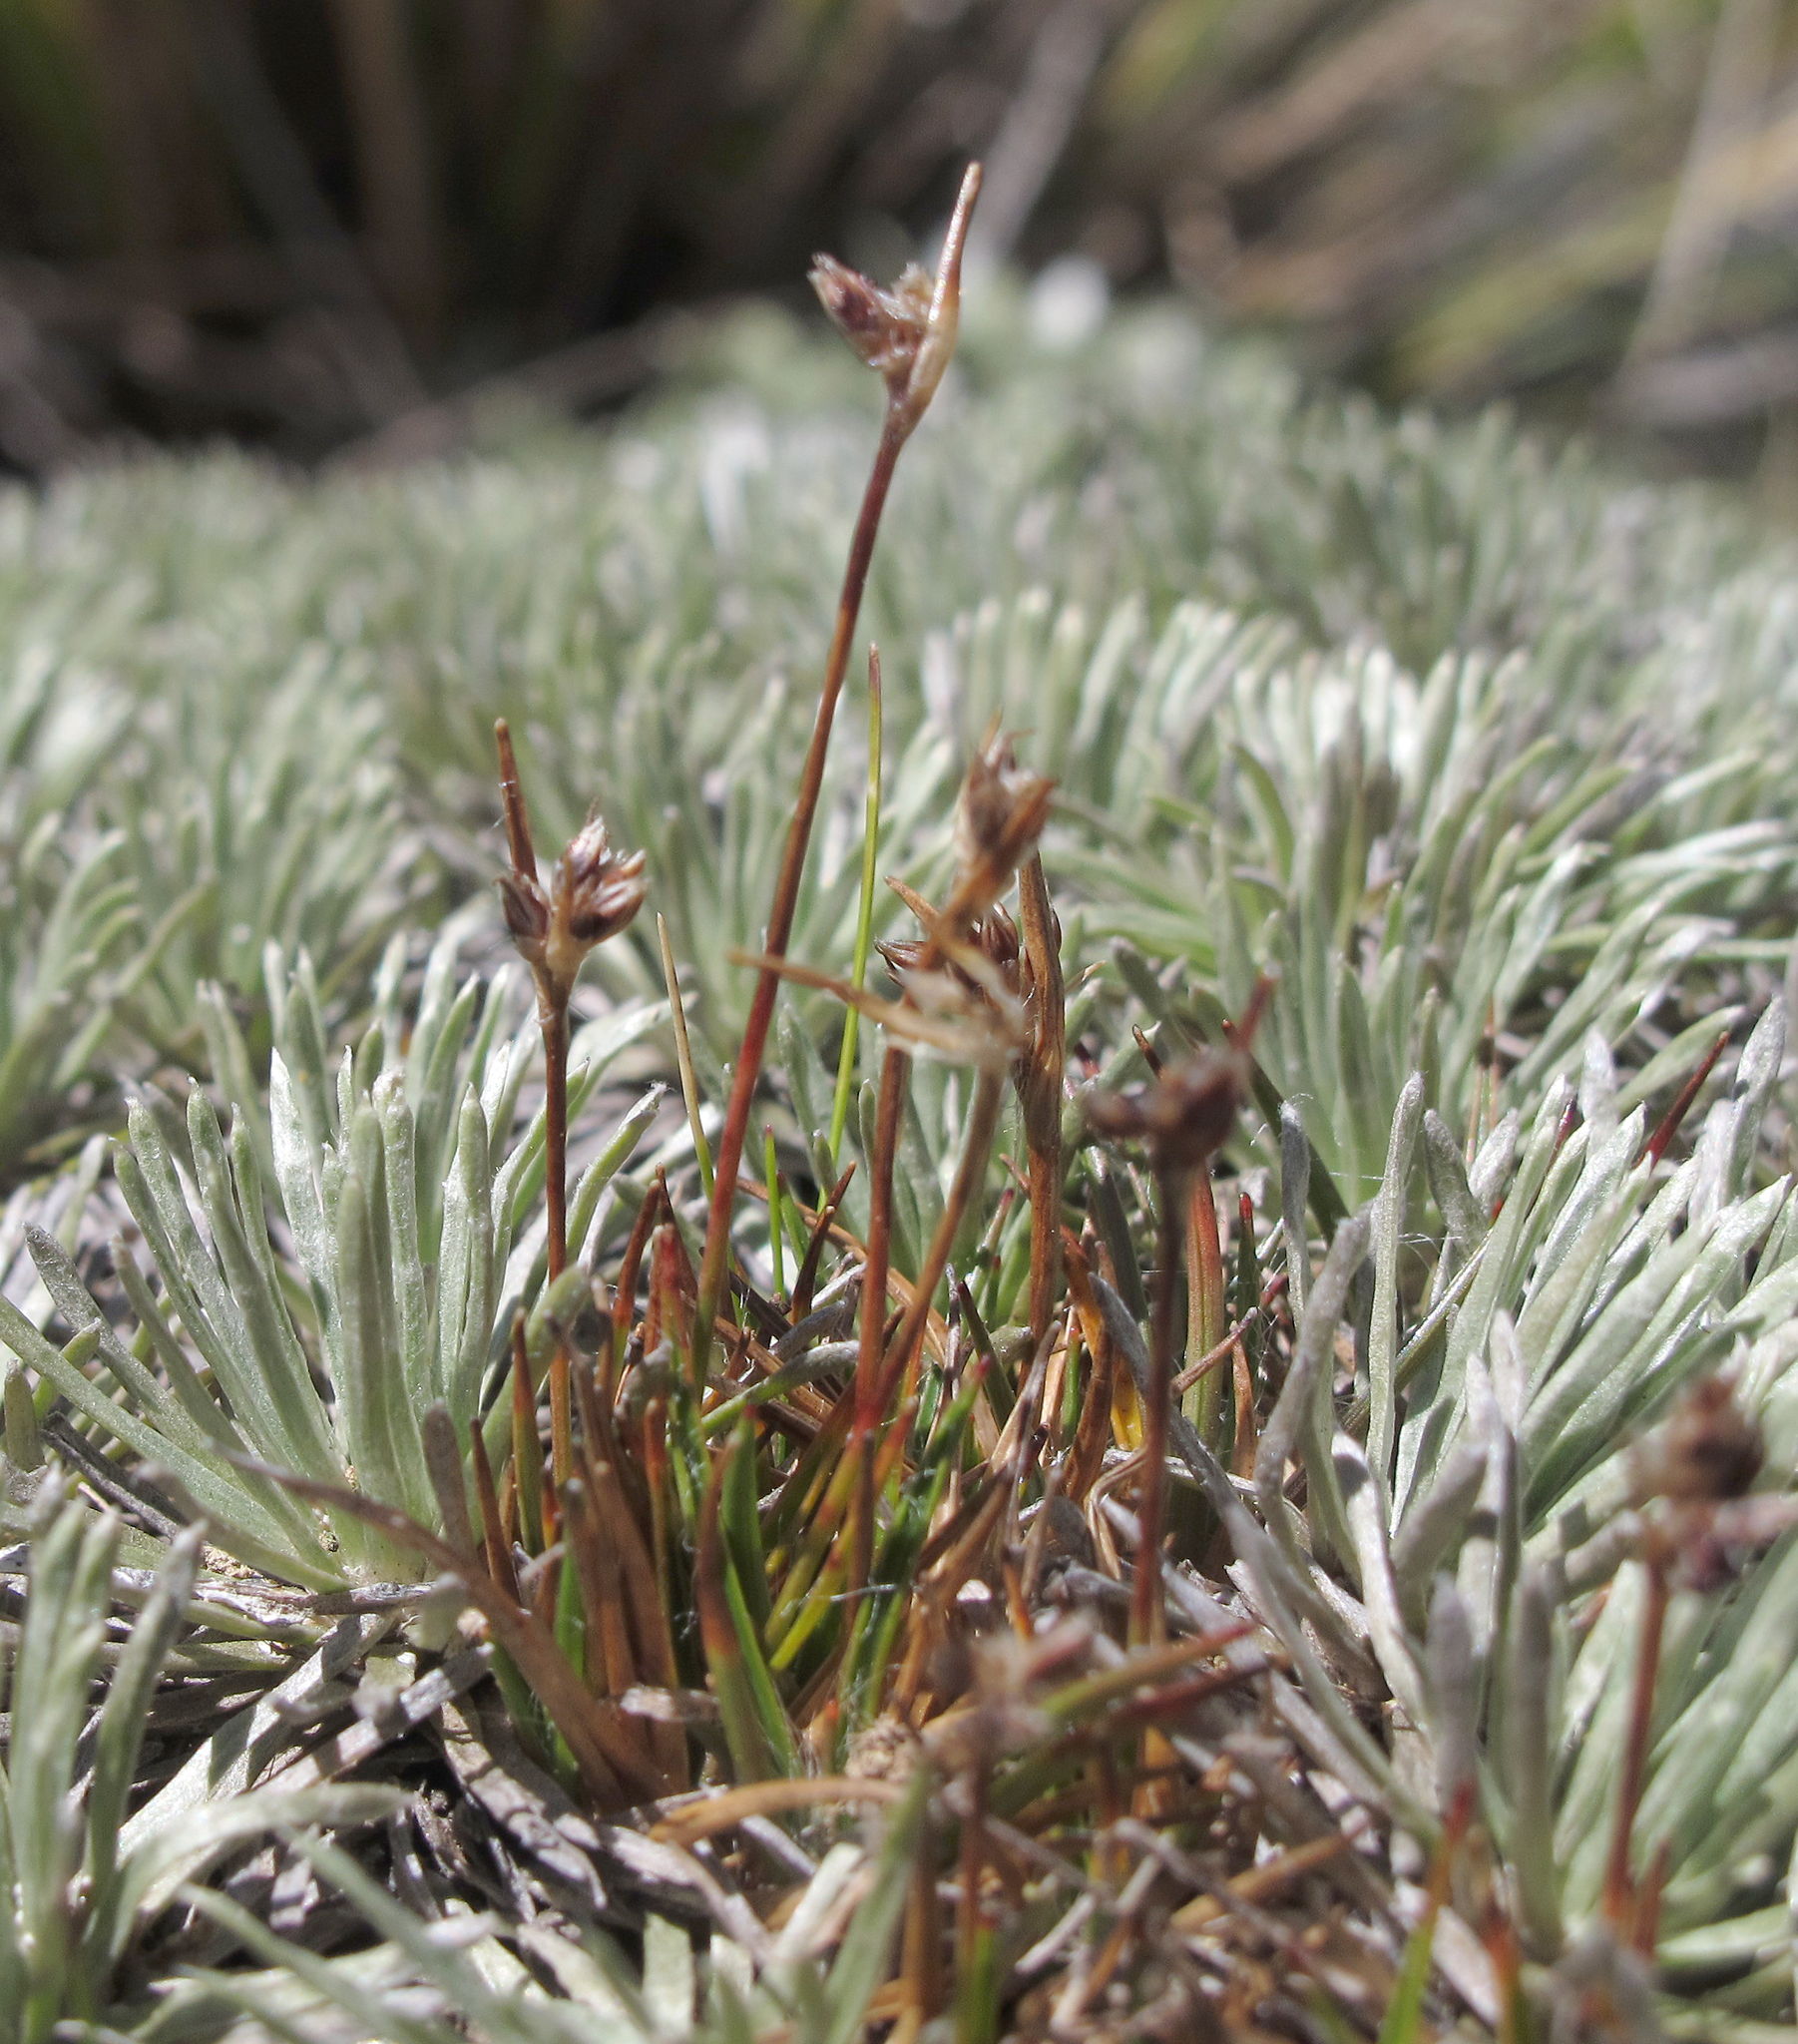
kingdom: Plantae
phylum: Tracheophyta
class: Liliopsida
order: Poales
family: Juncaceae
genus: Luzula
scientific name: Luzula pumila
